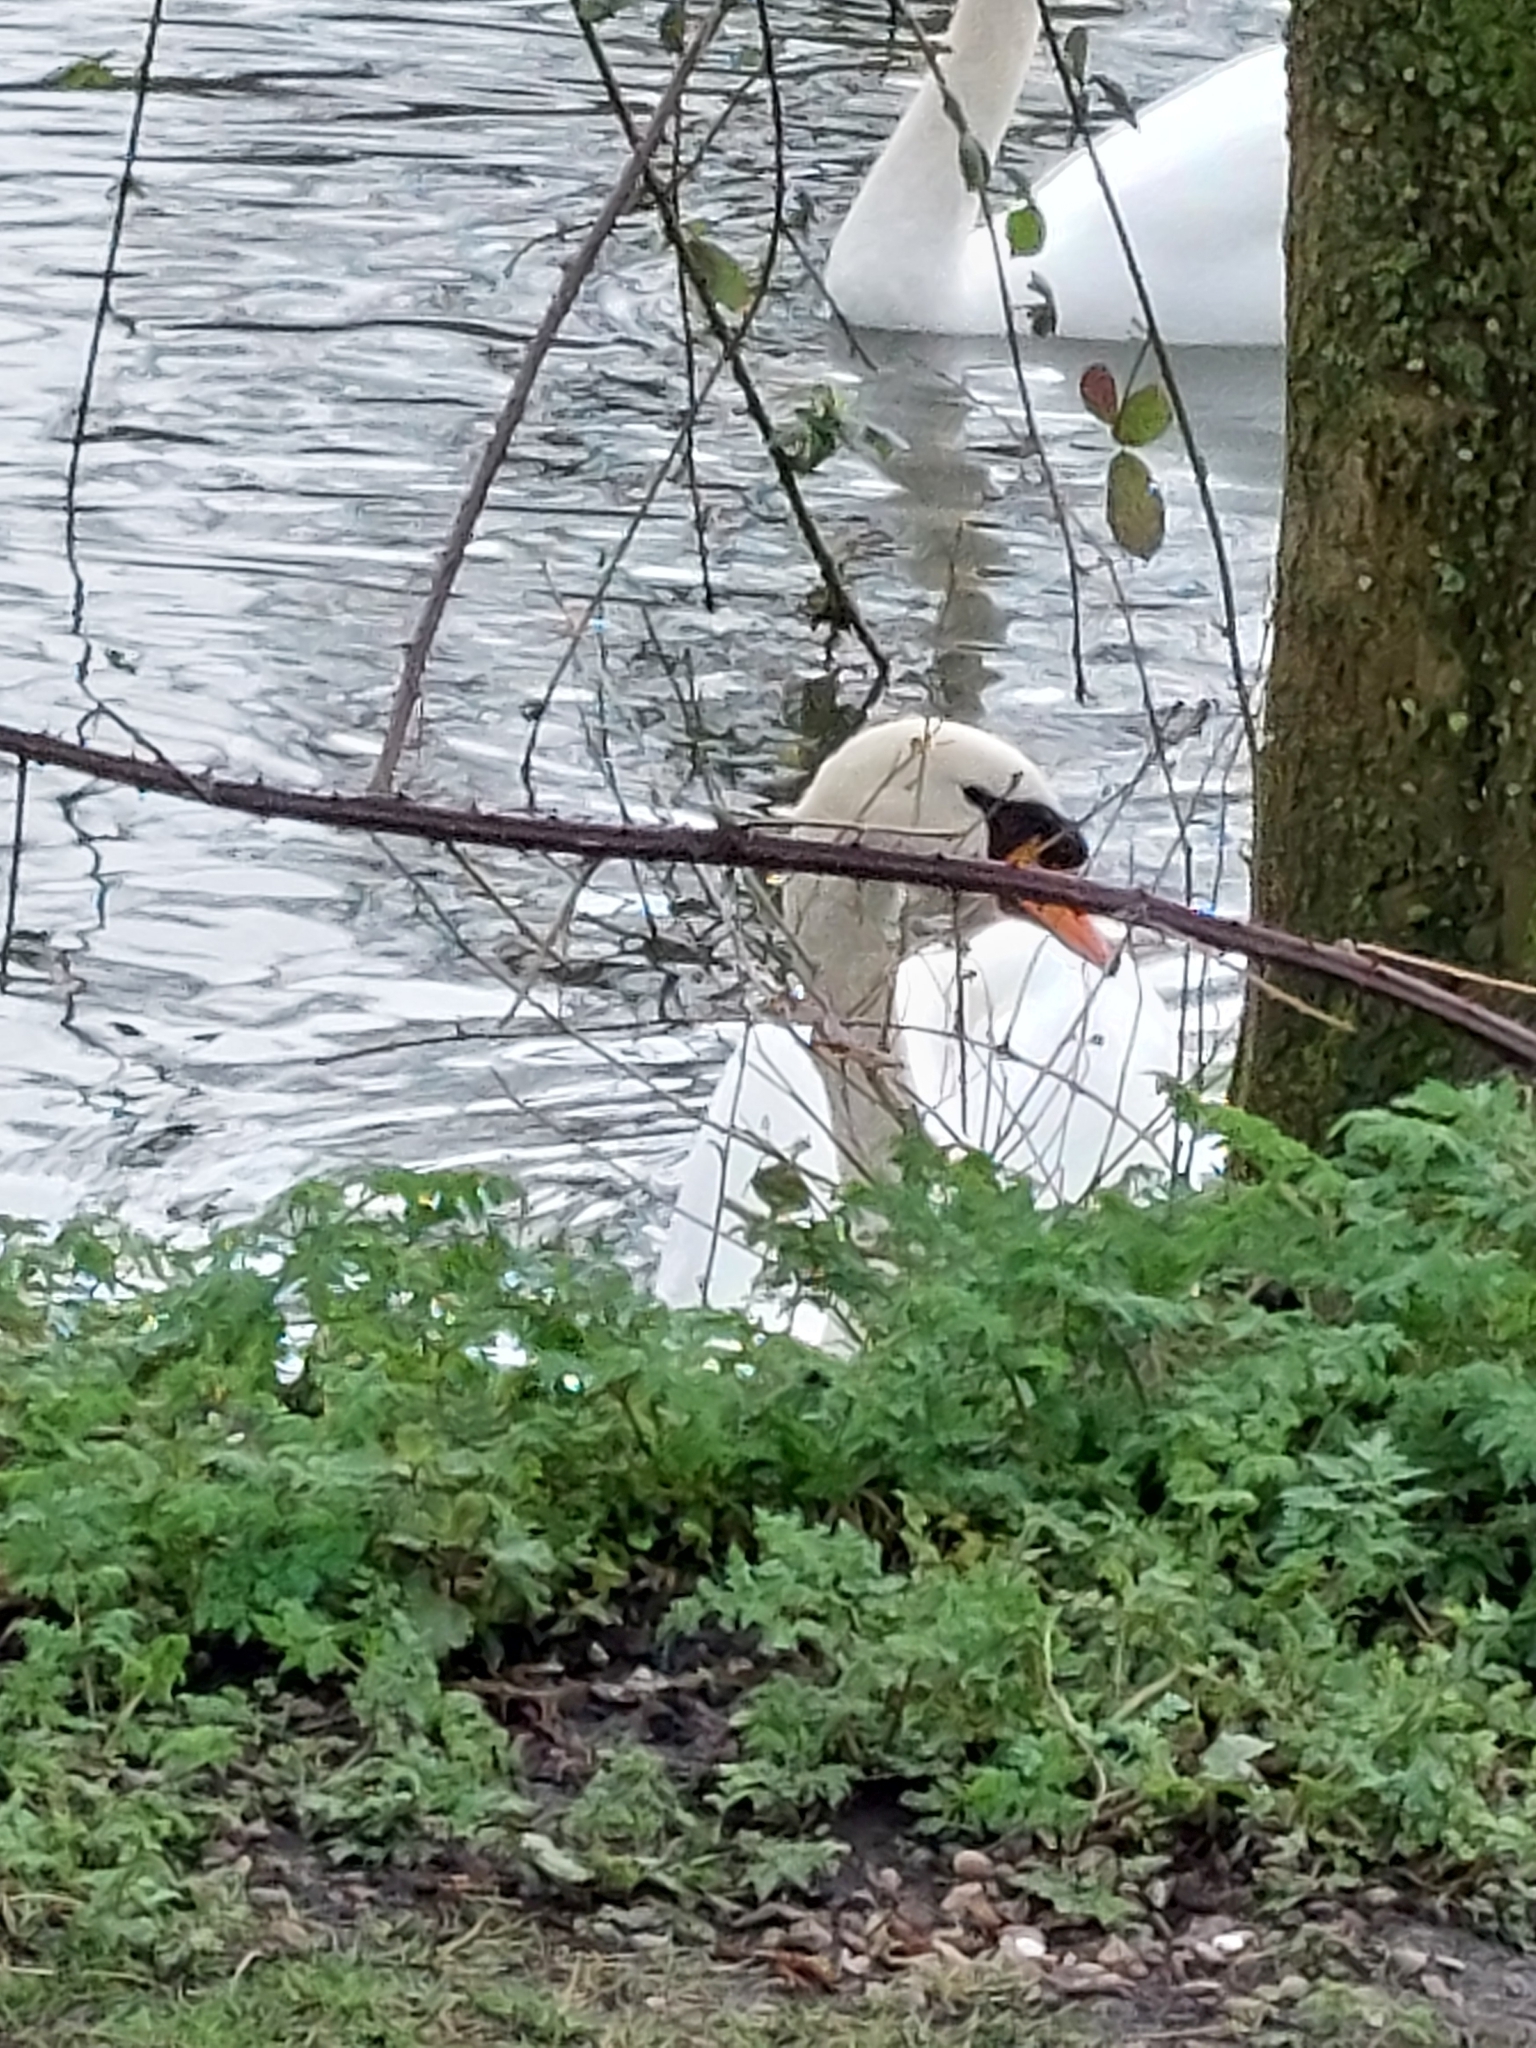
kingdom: Animalia
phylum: Chordata
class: Aves
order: Anseriformes
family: Anatidae
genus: Cygnus
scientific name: Cygnus olor
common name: Mute swan
